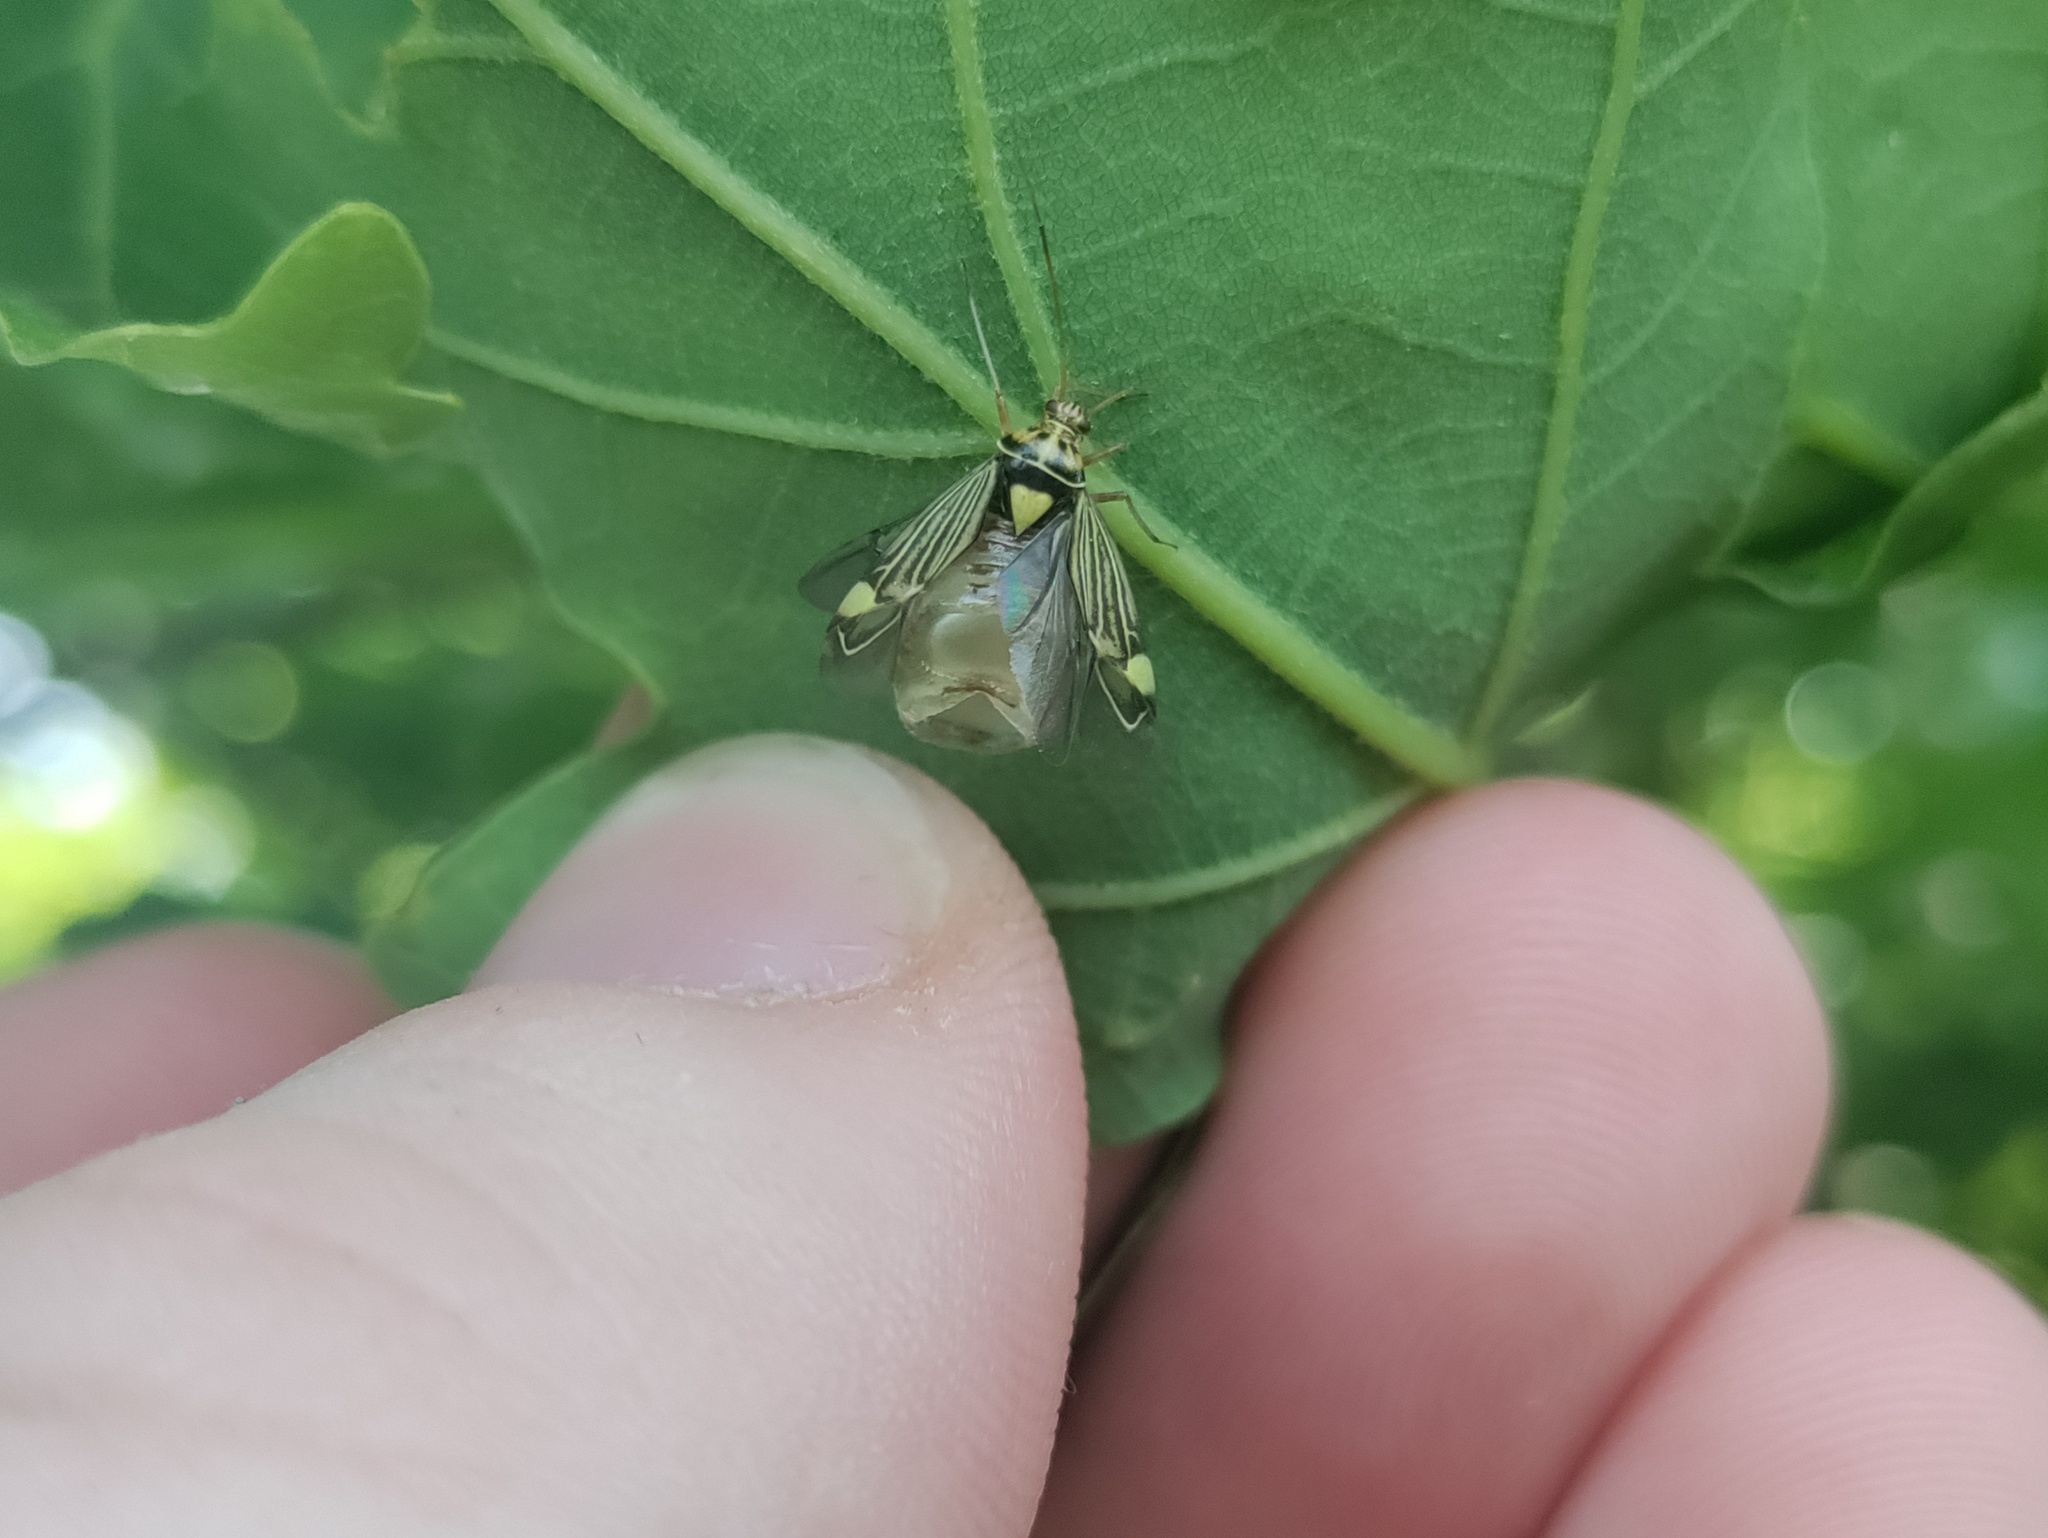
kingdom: Animalia
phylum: Arthropoda
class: Insecta
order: Hemiptera
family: Miridae
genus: Rhabdomiris
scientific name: Rhabdomiris striatellus
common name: Plant bug
